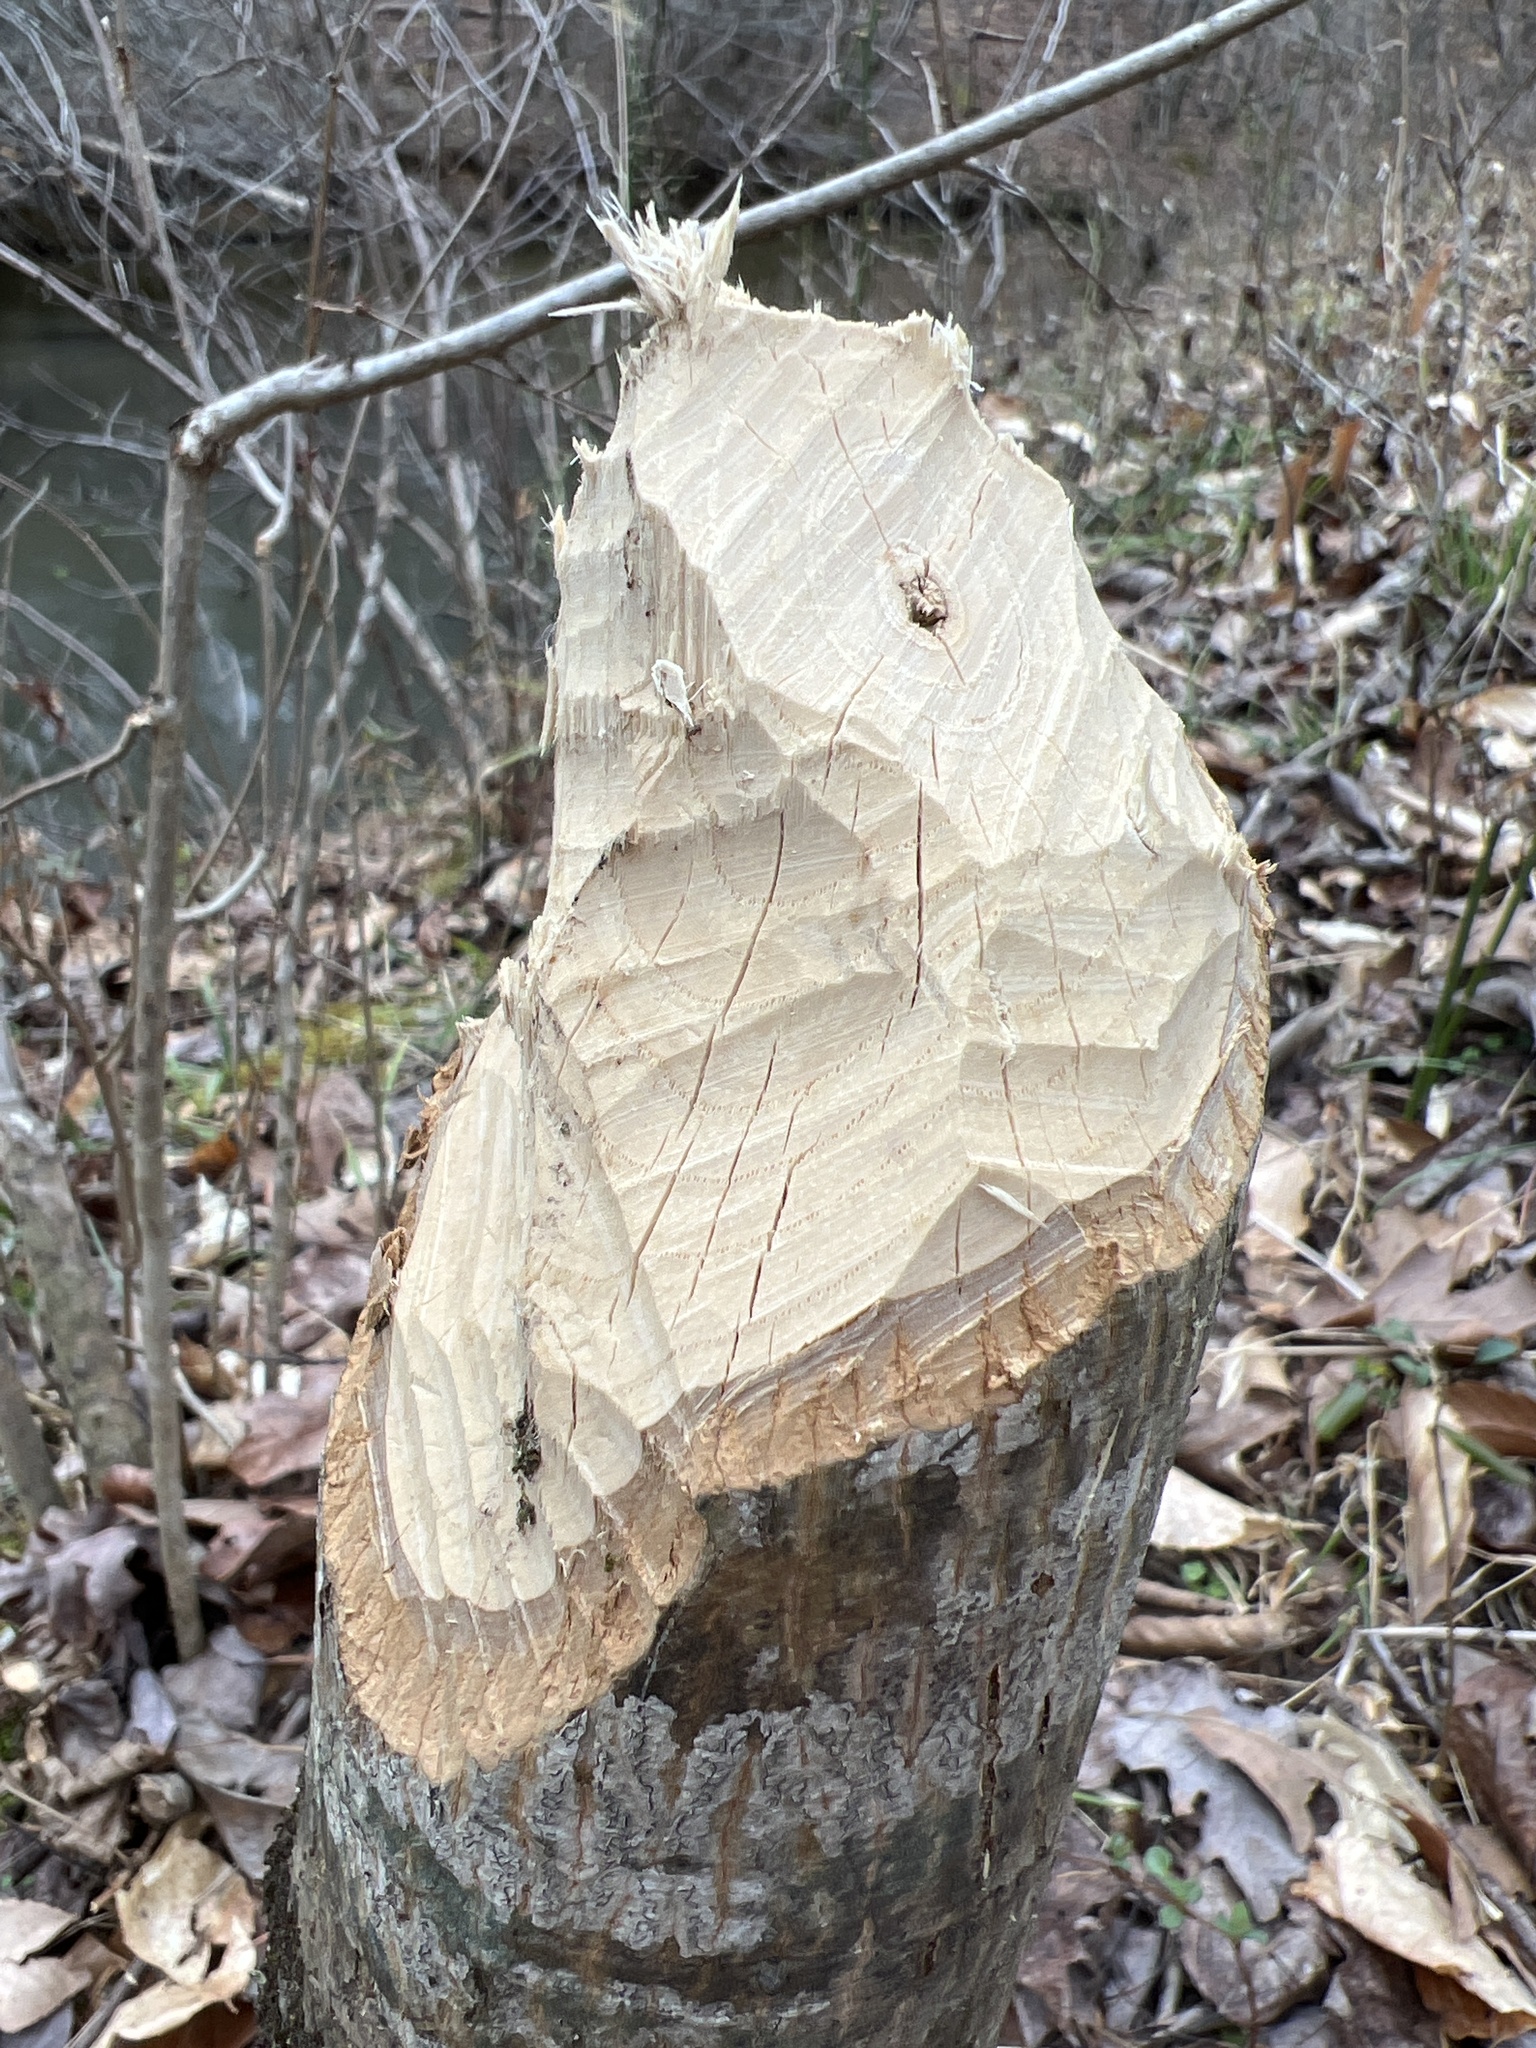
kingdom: Animalia
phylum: Chordata
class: Mammalia
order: Rodentia
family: Castoridae
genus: Castor
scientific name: Castor canadensis
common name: American beaver
